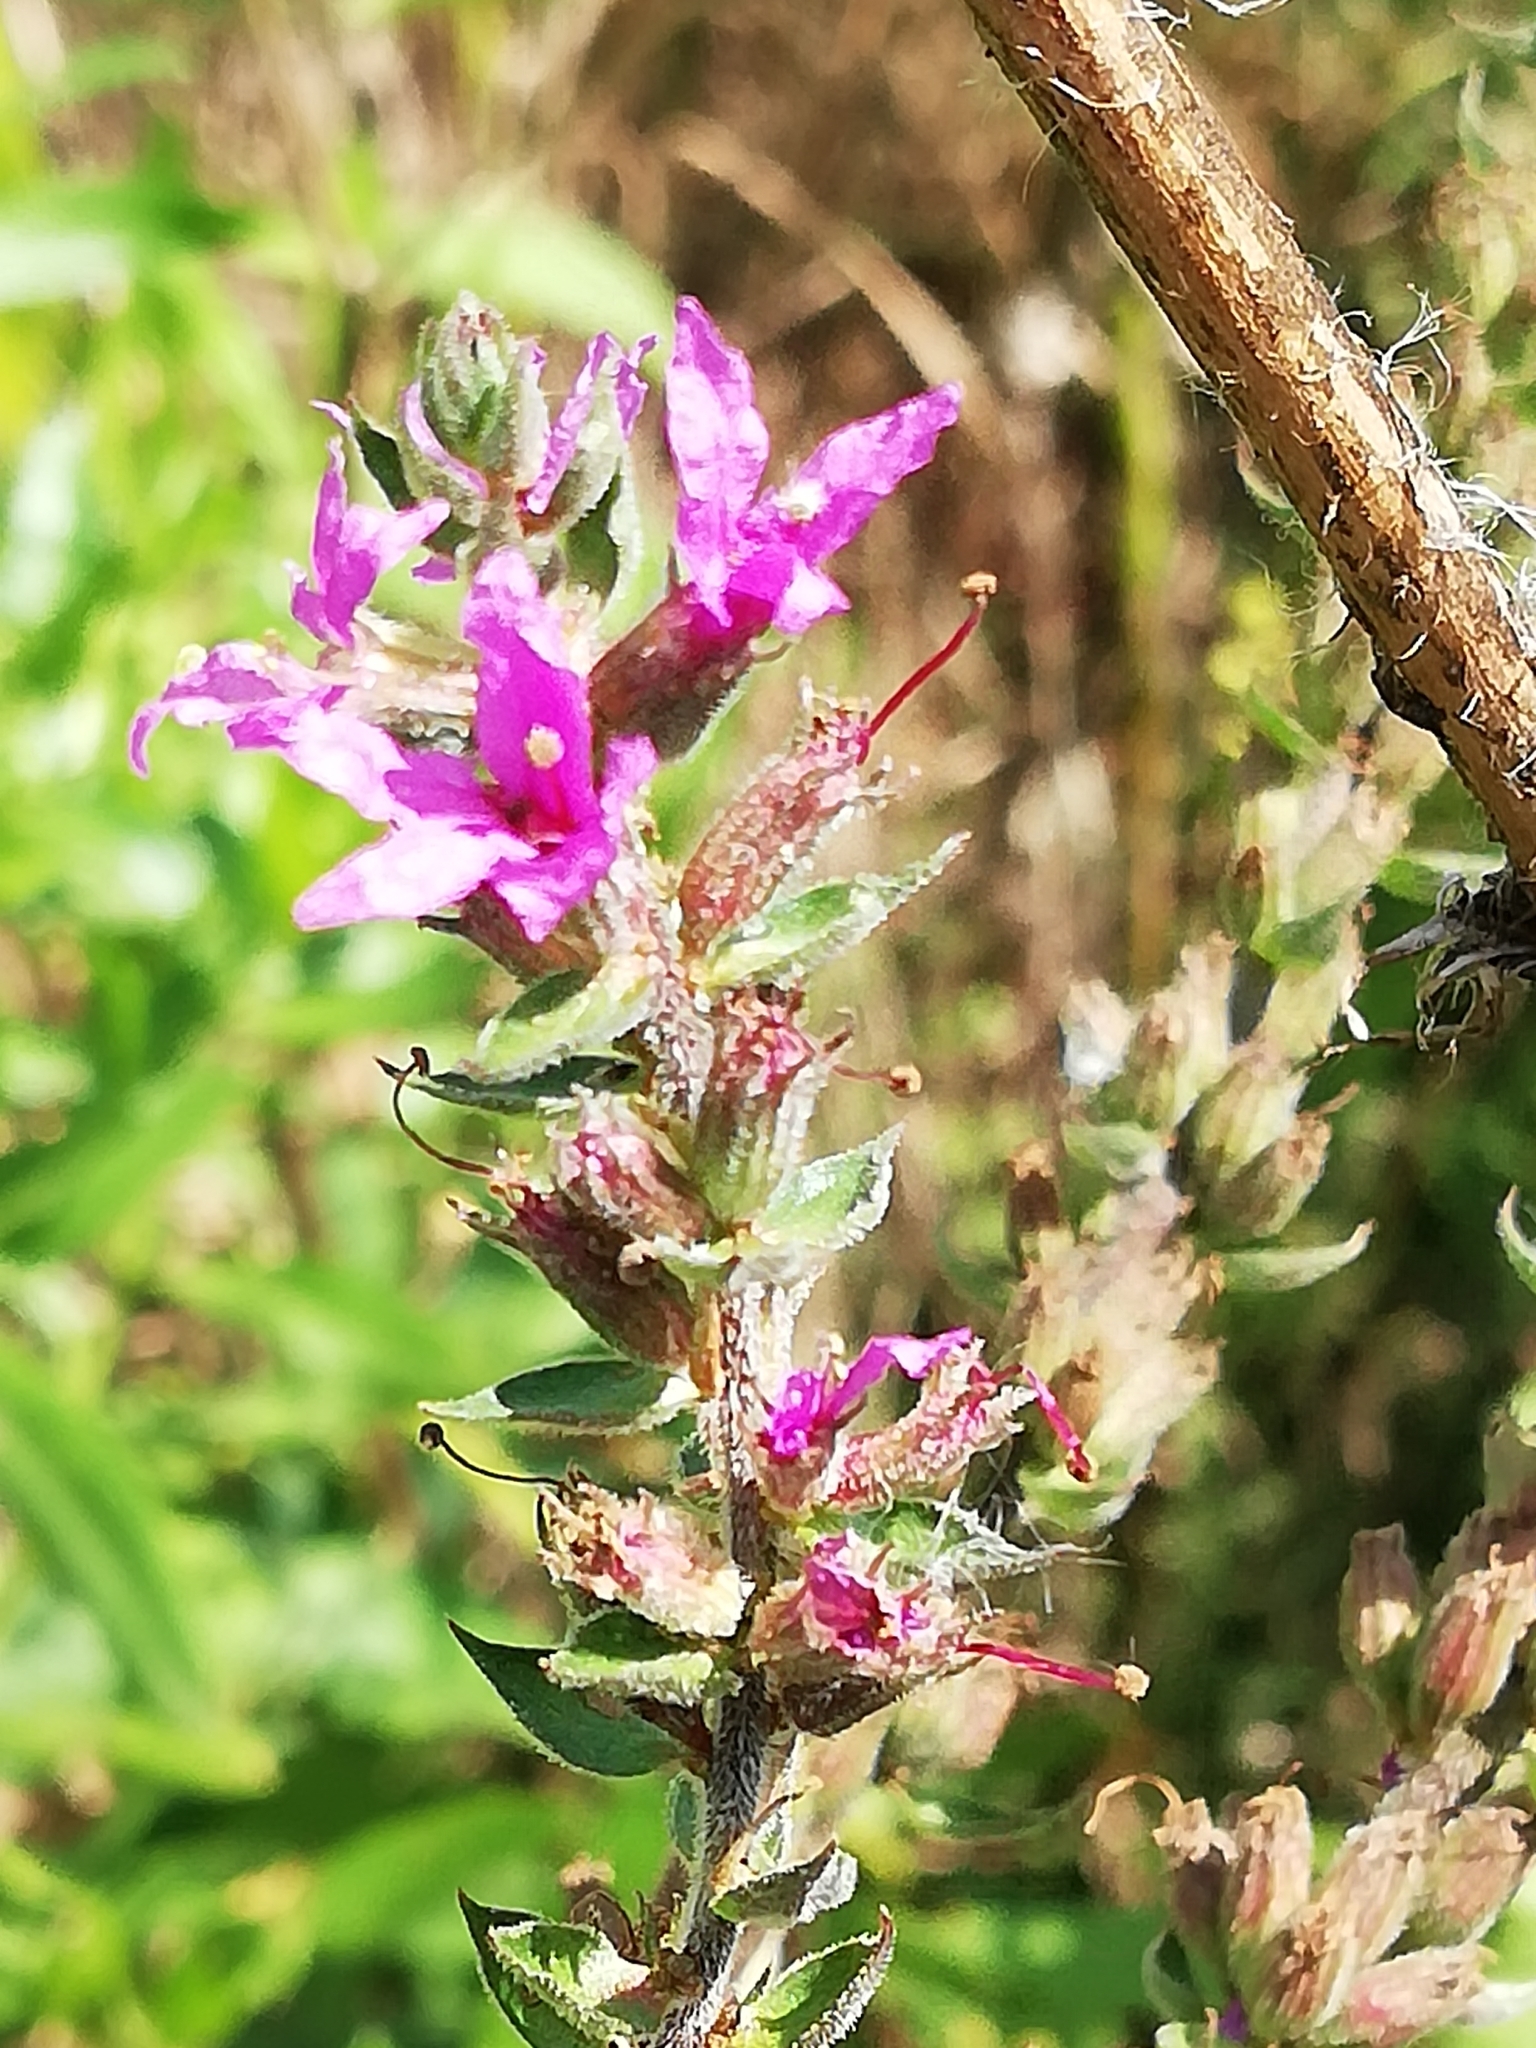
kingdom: Plantae
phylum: Tracheophyta
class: Magnoliopsida
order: Myrtales
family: Lythraceae
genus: Lythrum
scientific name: Lythrum salicaria
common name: Purple loosestrife
